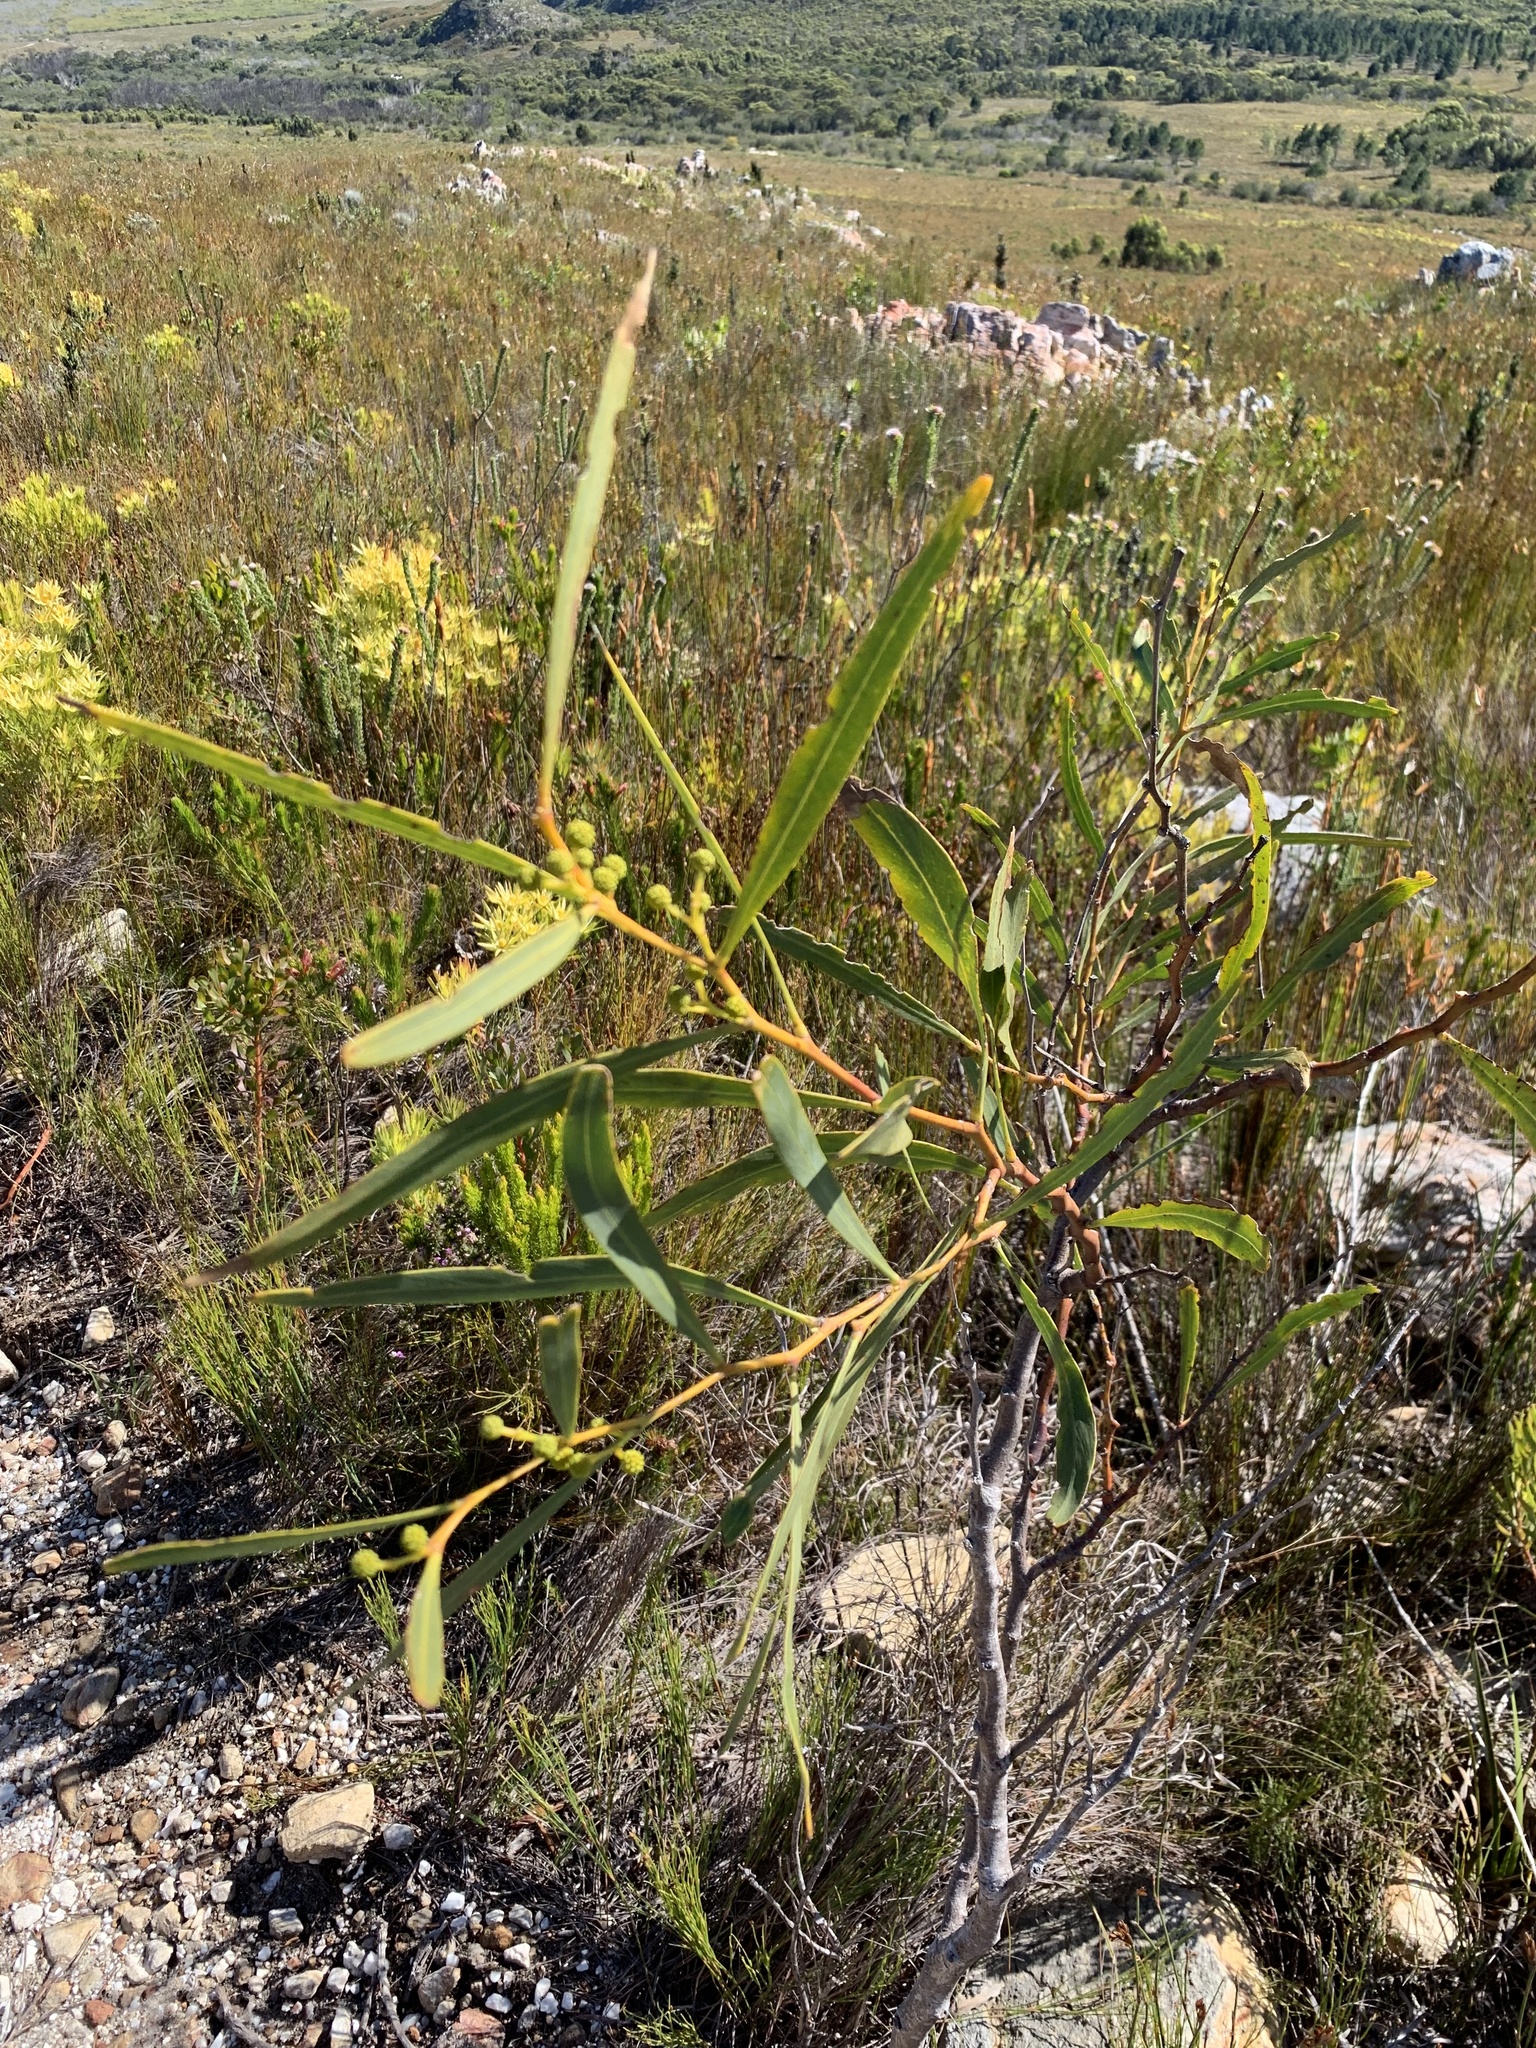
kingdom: Plantae
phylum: Tracheophyta
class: Magnoliopsida
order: Fabales
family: Fabaceae
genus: Acacia
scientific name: Acacia saligna
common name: Orange wattle
